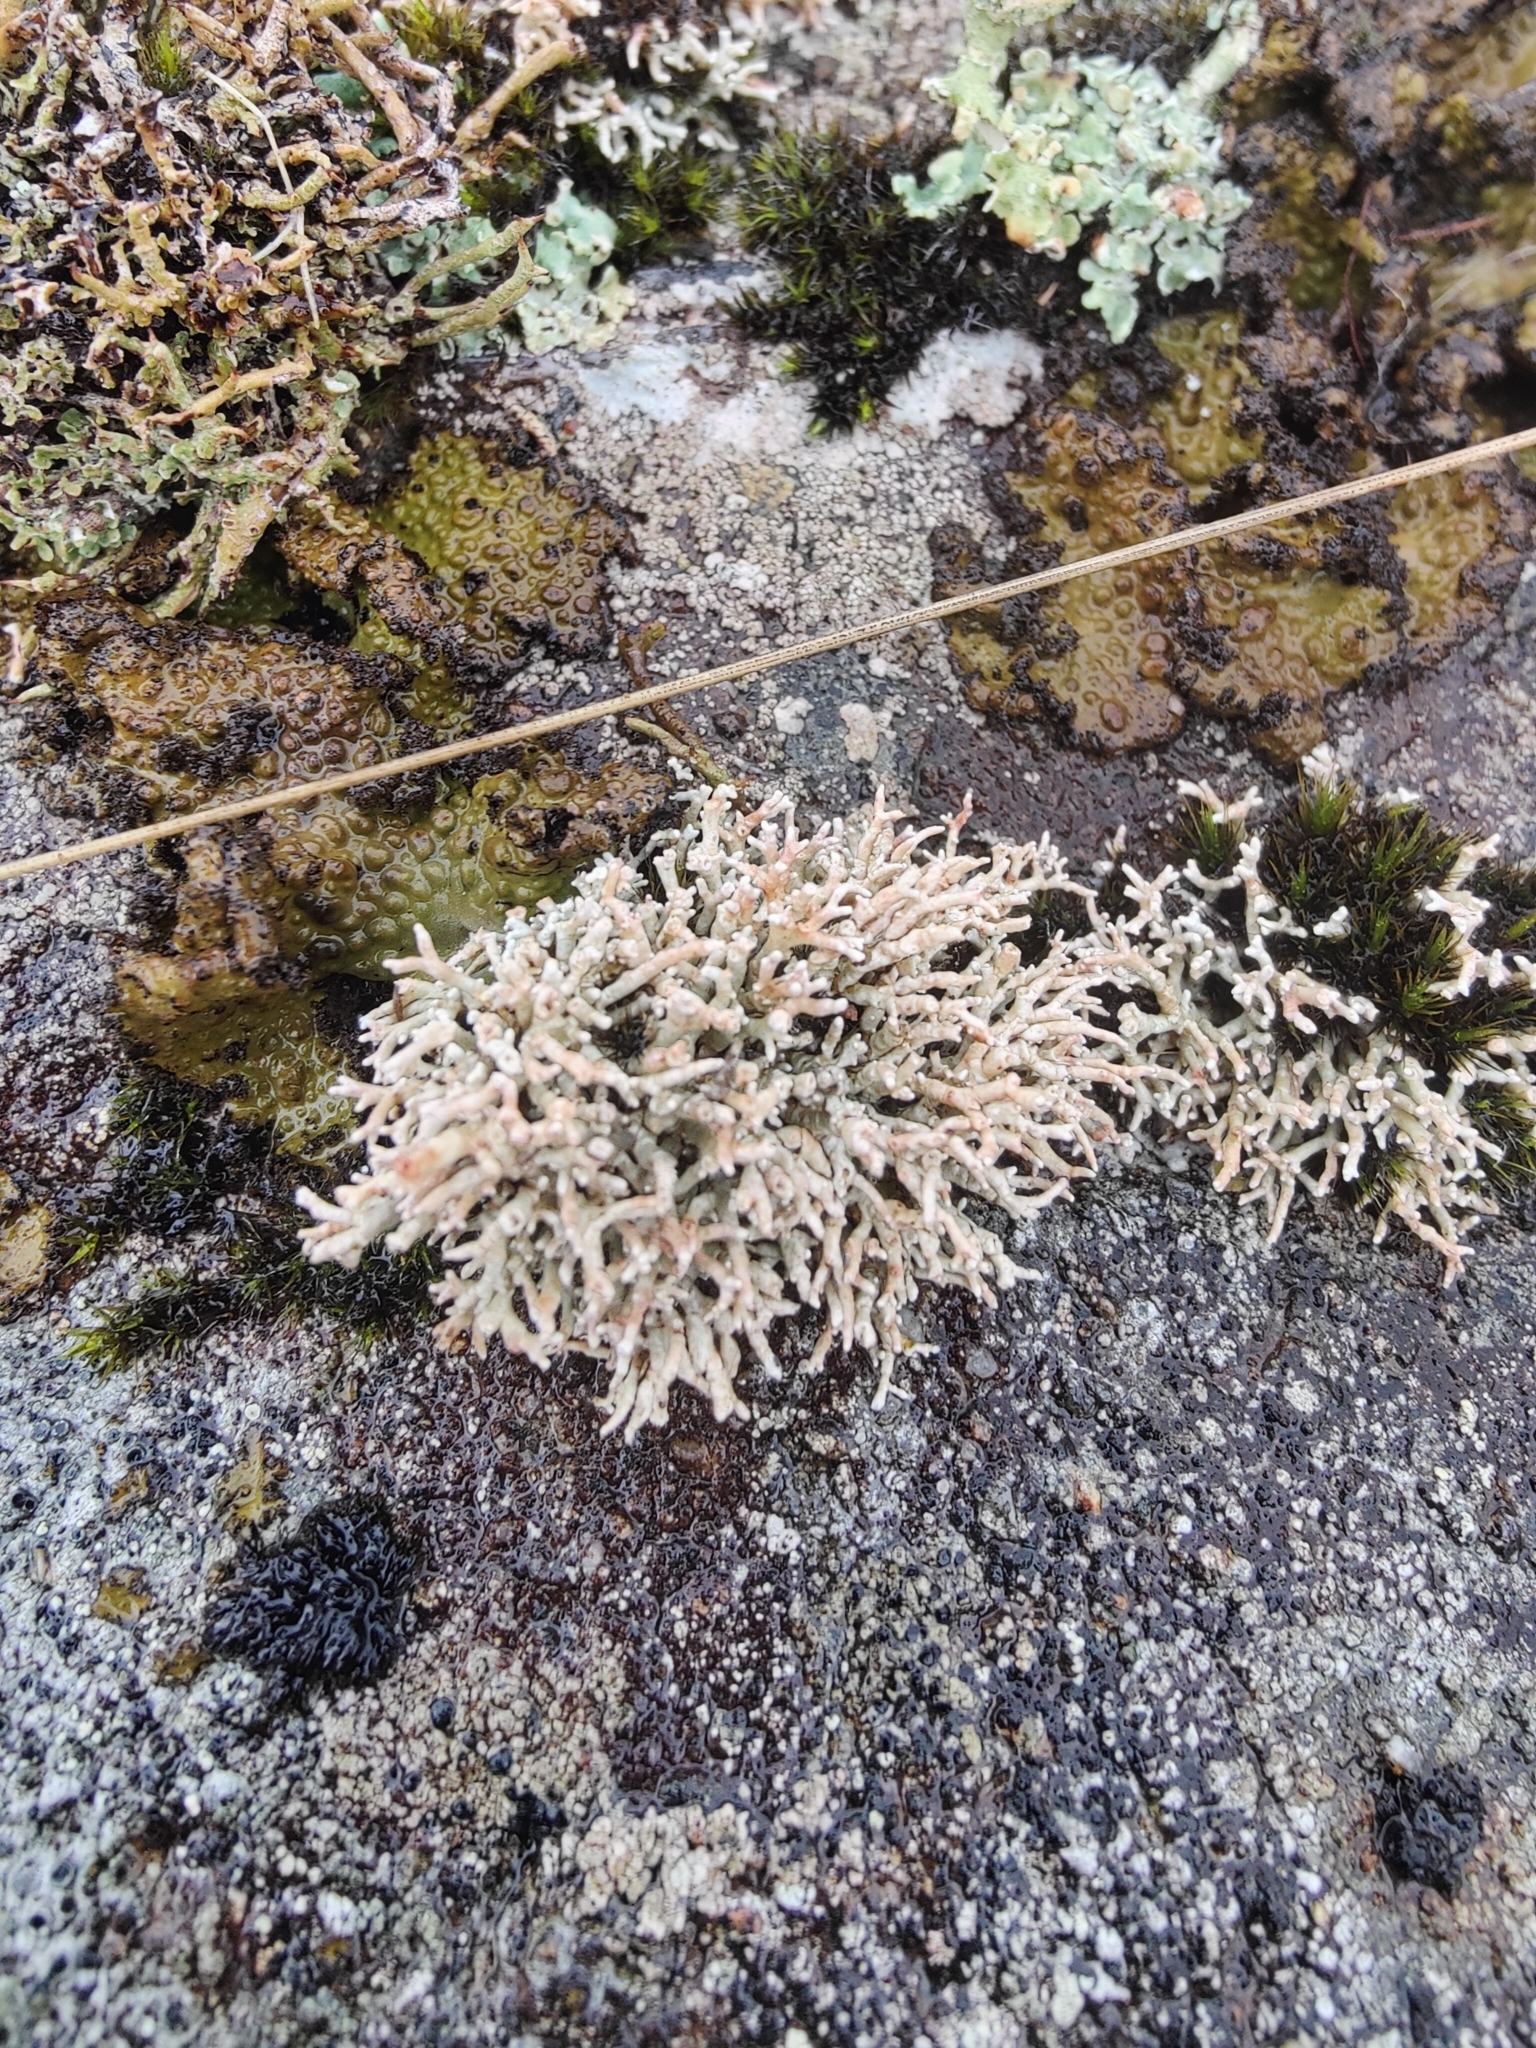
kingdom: Fungi
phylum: Ascomycota
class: Lecanoromycetes
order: Lecanorales
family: Sphaerophoraceae
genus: Sphaerophorus
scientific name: Sphaerophorus fragilis
